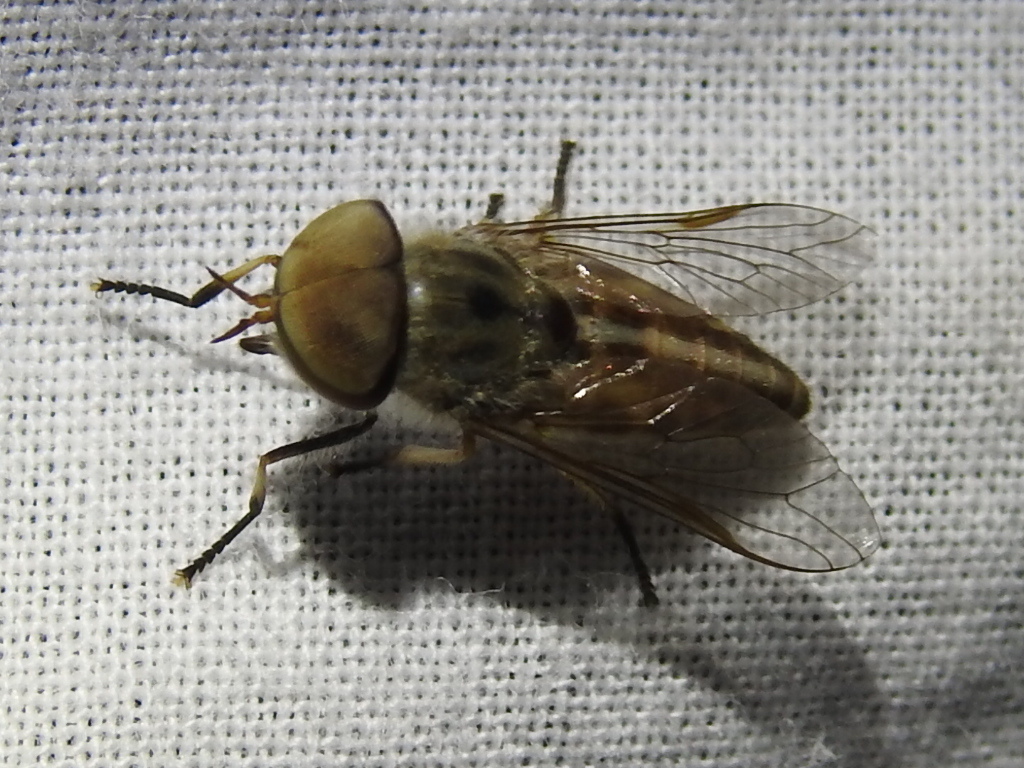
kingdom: Animalia
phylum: Arthropoda
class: Insecta
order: Diptera
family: Tabanidae
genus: Tabanus
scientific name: Tabanus lineola
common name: Striped horse fly
